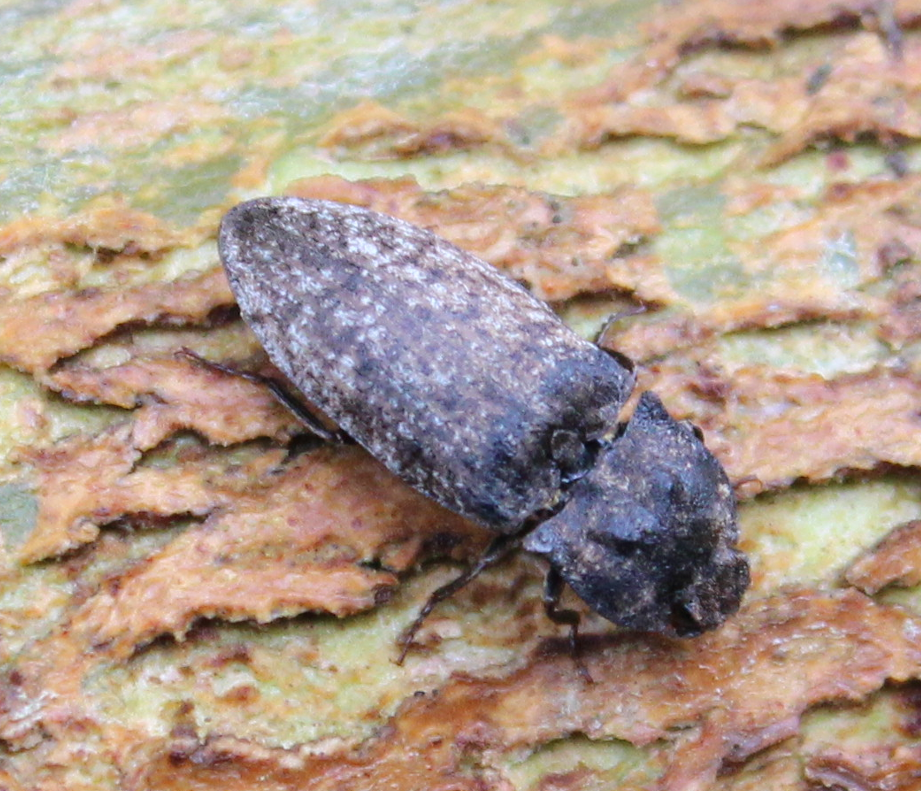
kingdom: Animalia
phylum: Arthropoda
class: Insecta
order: Coleoptera
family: Elateridae
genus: Agrypnus
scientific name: Agrypnus murinus
